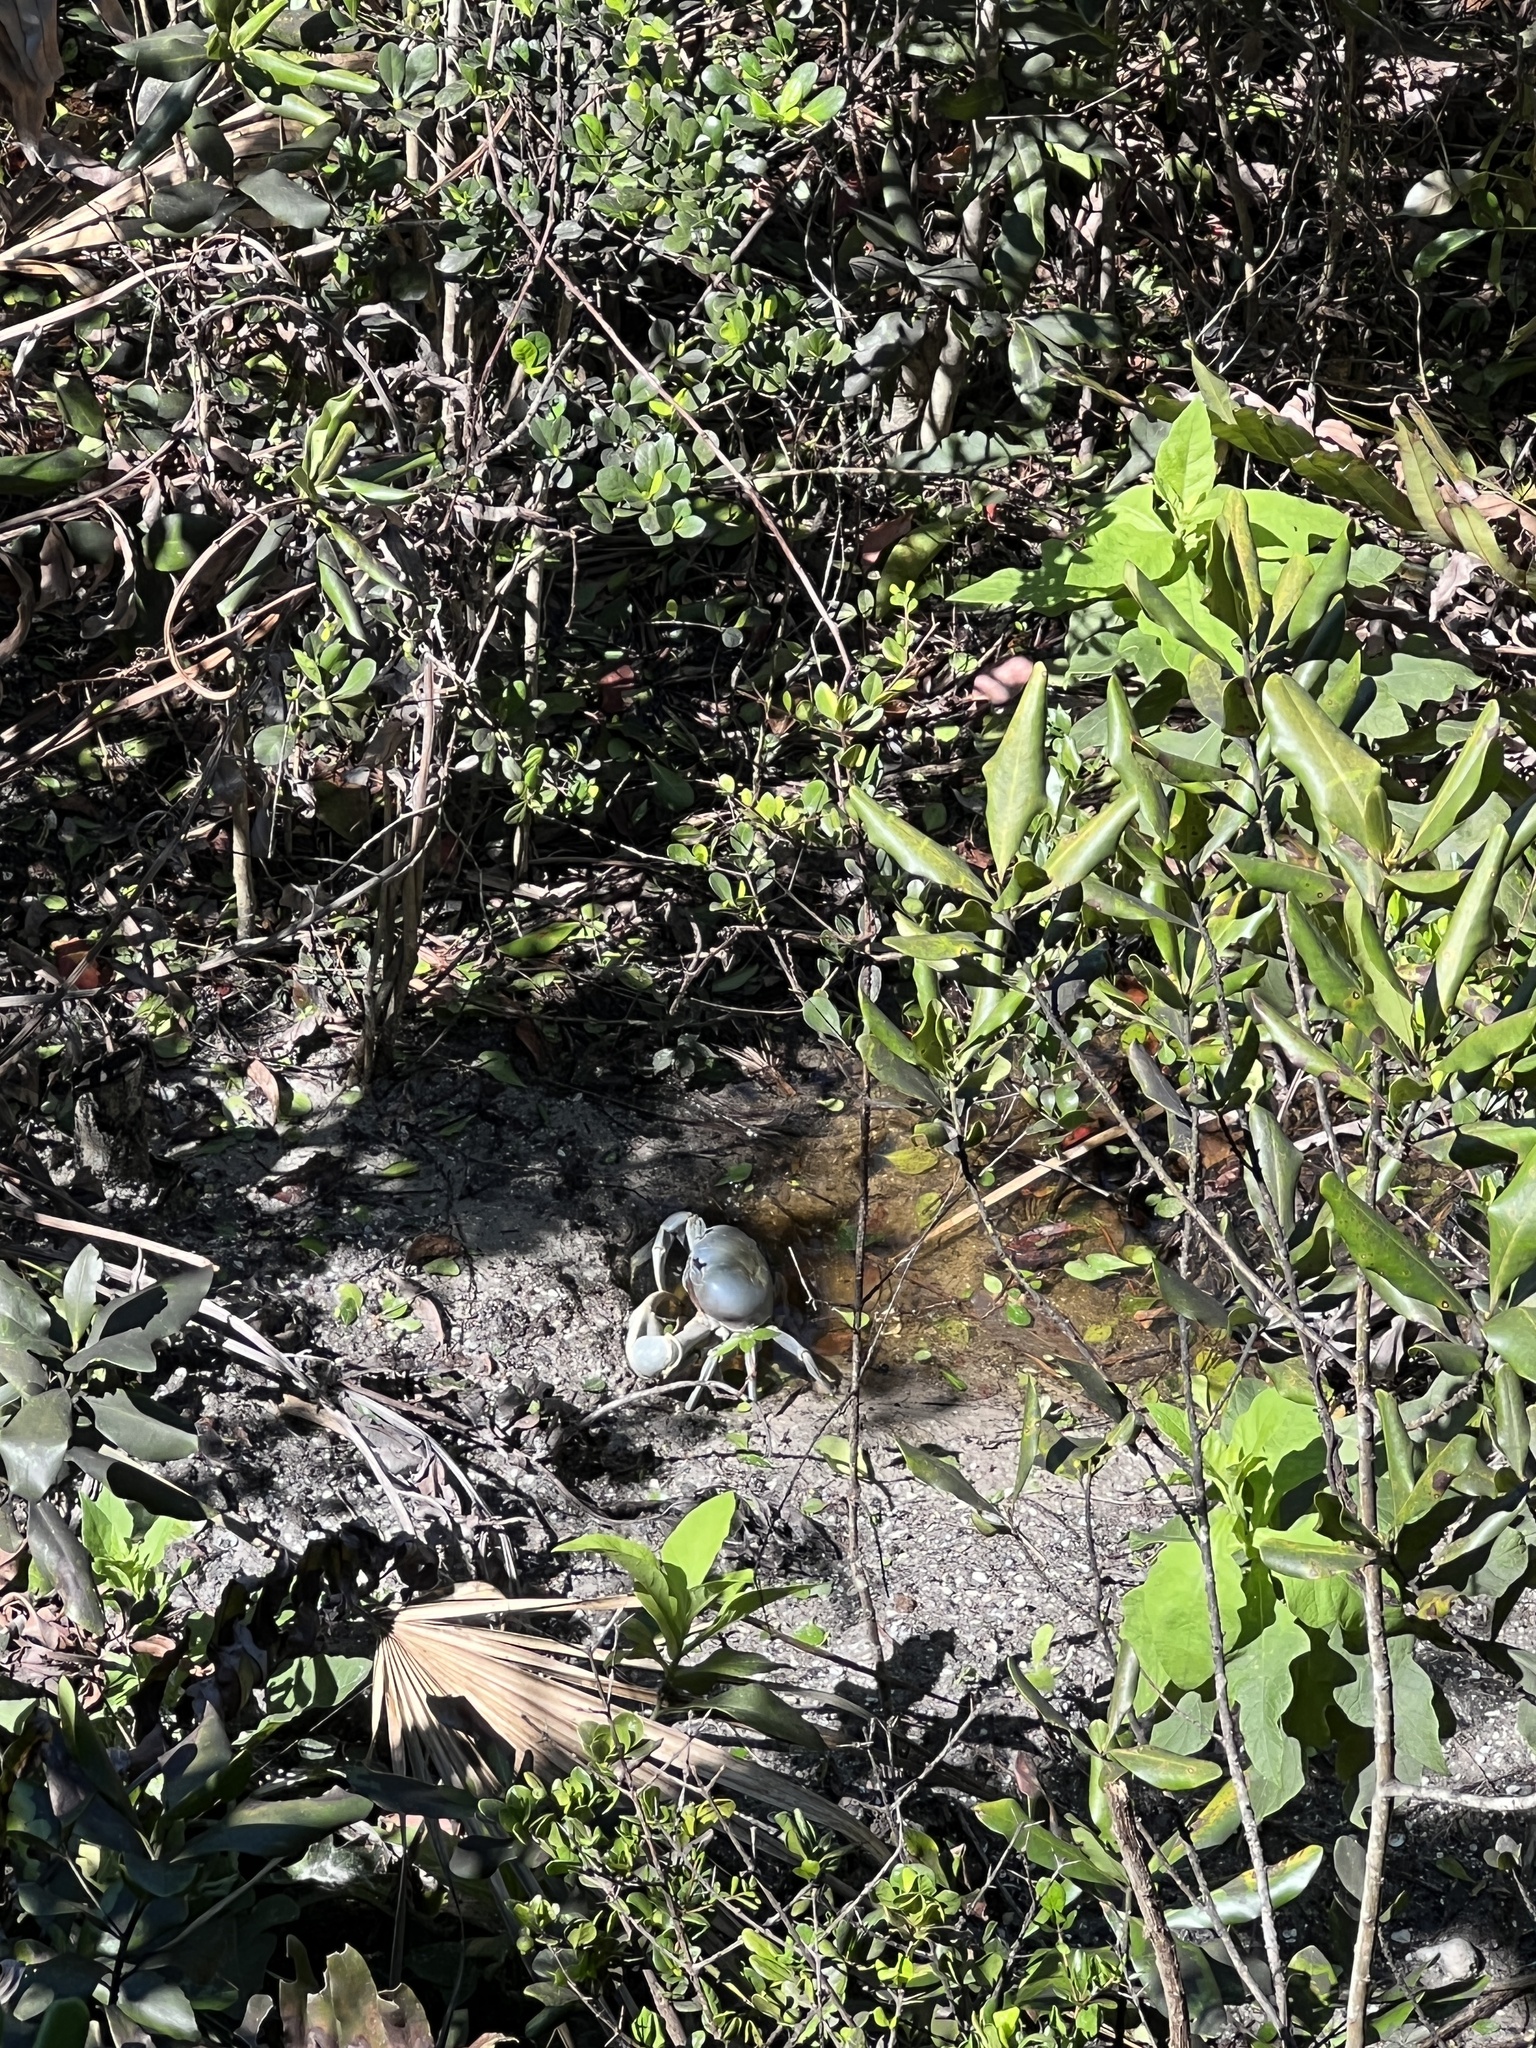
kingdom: Animalia
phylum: Arthropoda
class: Malacostraca
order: Decapoda
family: Gecarcinidae
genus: Cardisoma
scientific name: Cardisoma guanhumi
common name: Great land crab
